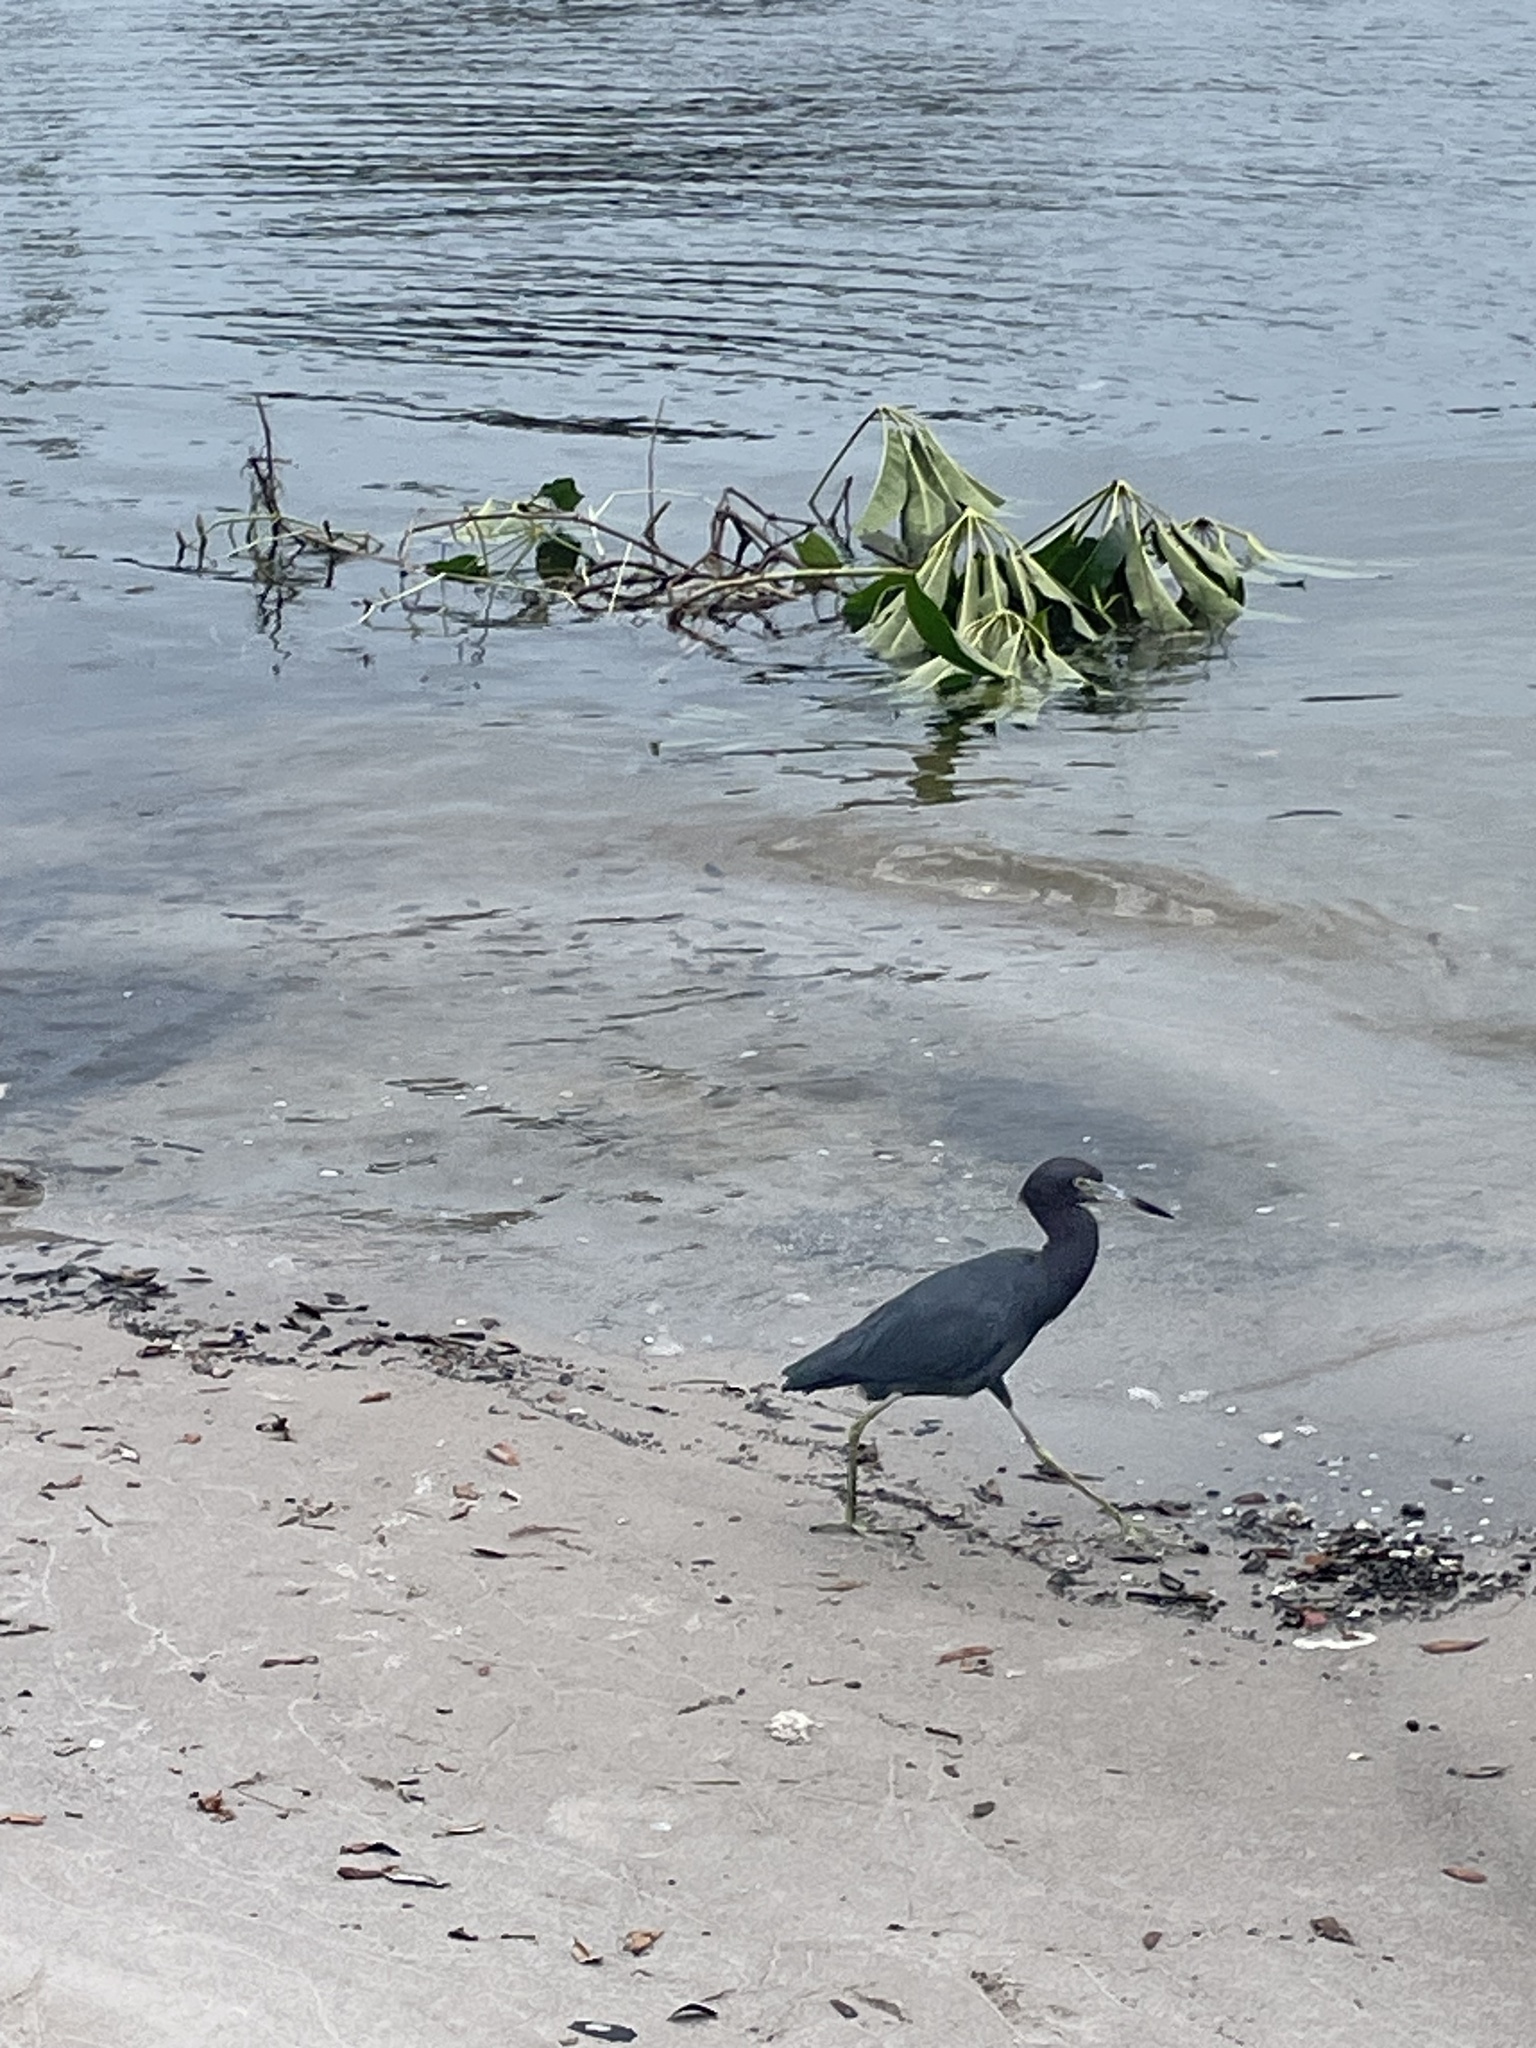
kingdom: Animalia
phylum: Chordata
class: Aves
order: Pelecaniformes
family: Ardeidae
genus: Egretta
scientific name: Egretta caerulea
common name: Little blue heron
